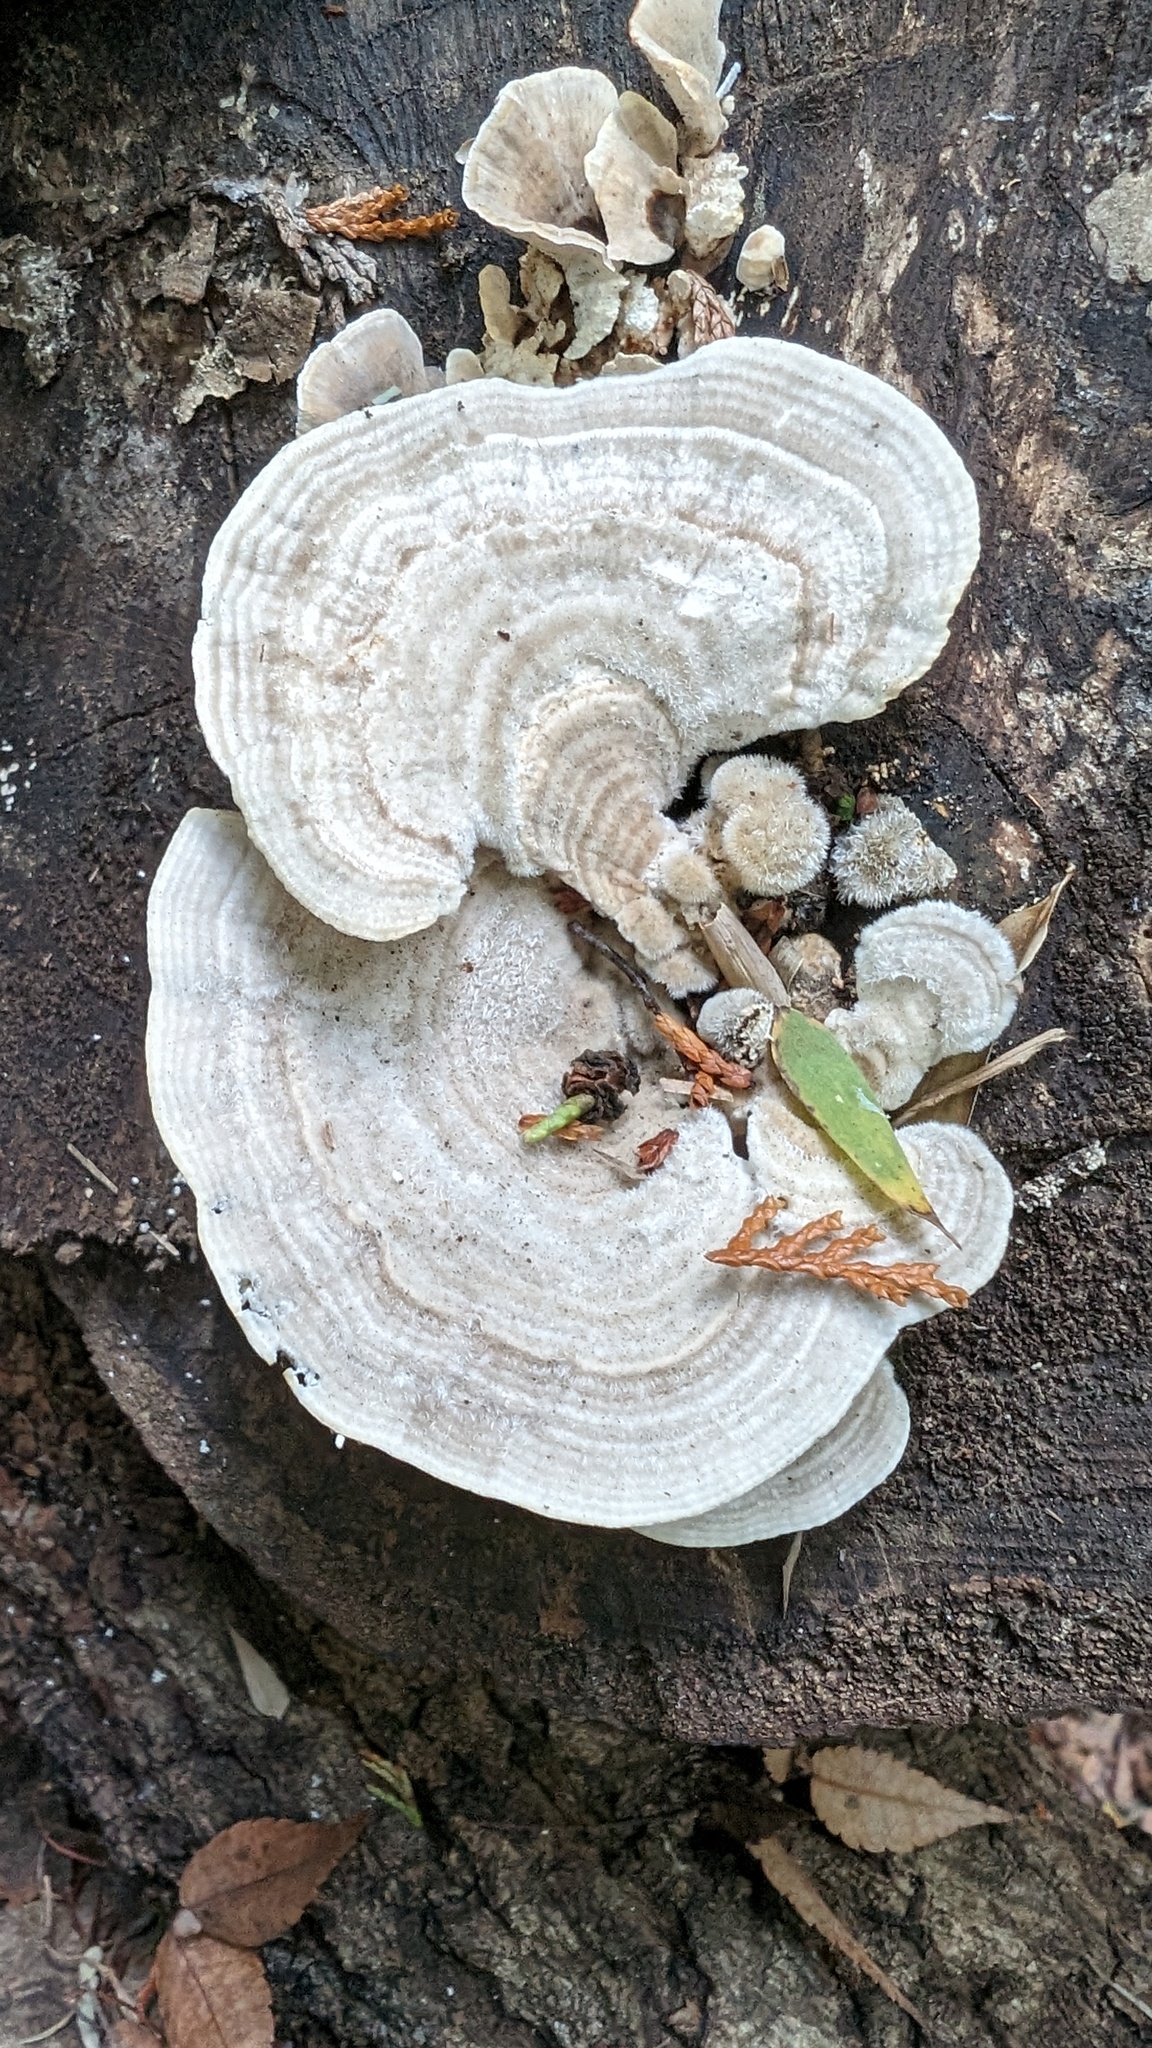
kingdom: Fungi
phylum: Basidiomycota
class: Agaricomycetes
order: Polyporales
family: Polyporaceae
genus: Lenzites
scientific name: Lenzites betulinus
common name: Birch mazegill
